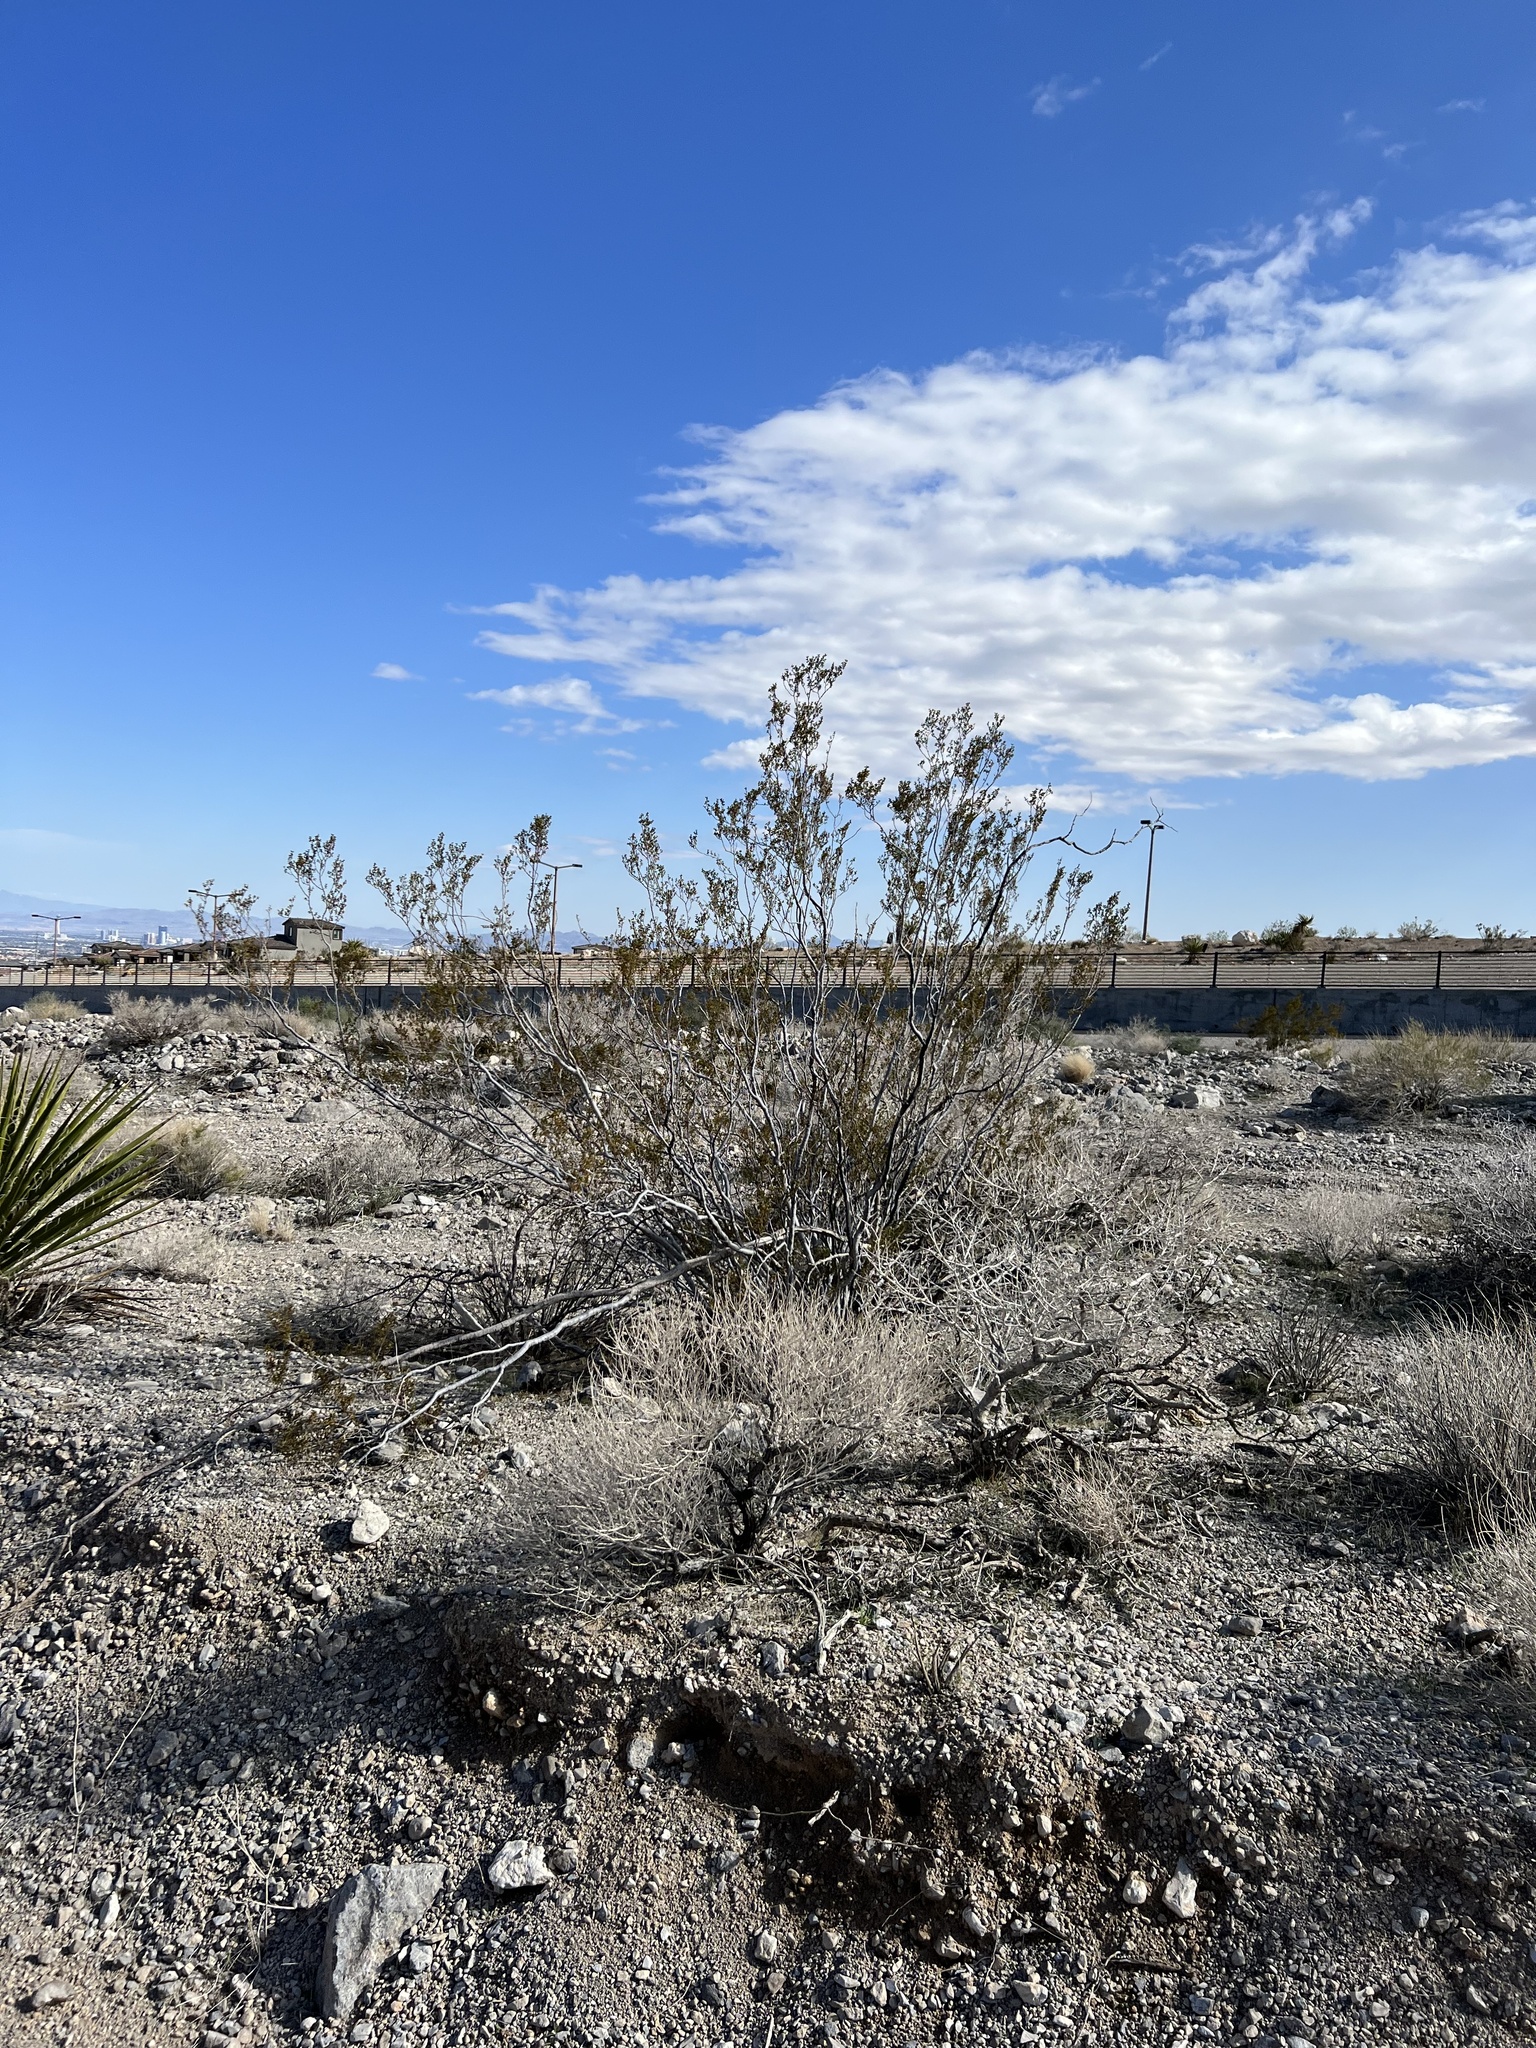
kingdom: Plantae
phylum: Tracheophyta
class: Magnoliopsida
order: Zygophyllales
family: Zygophyllaceae
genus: Larrea
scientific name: Larrea tridentata
